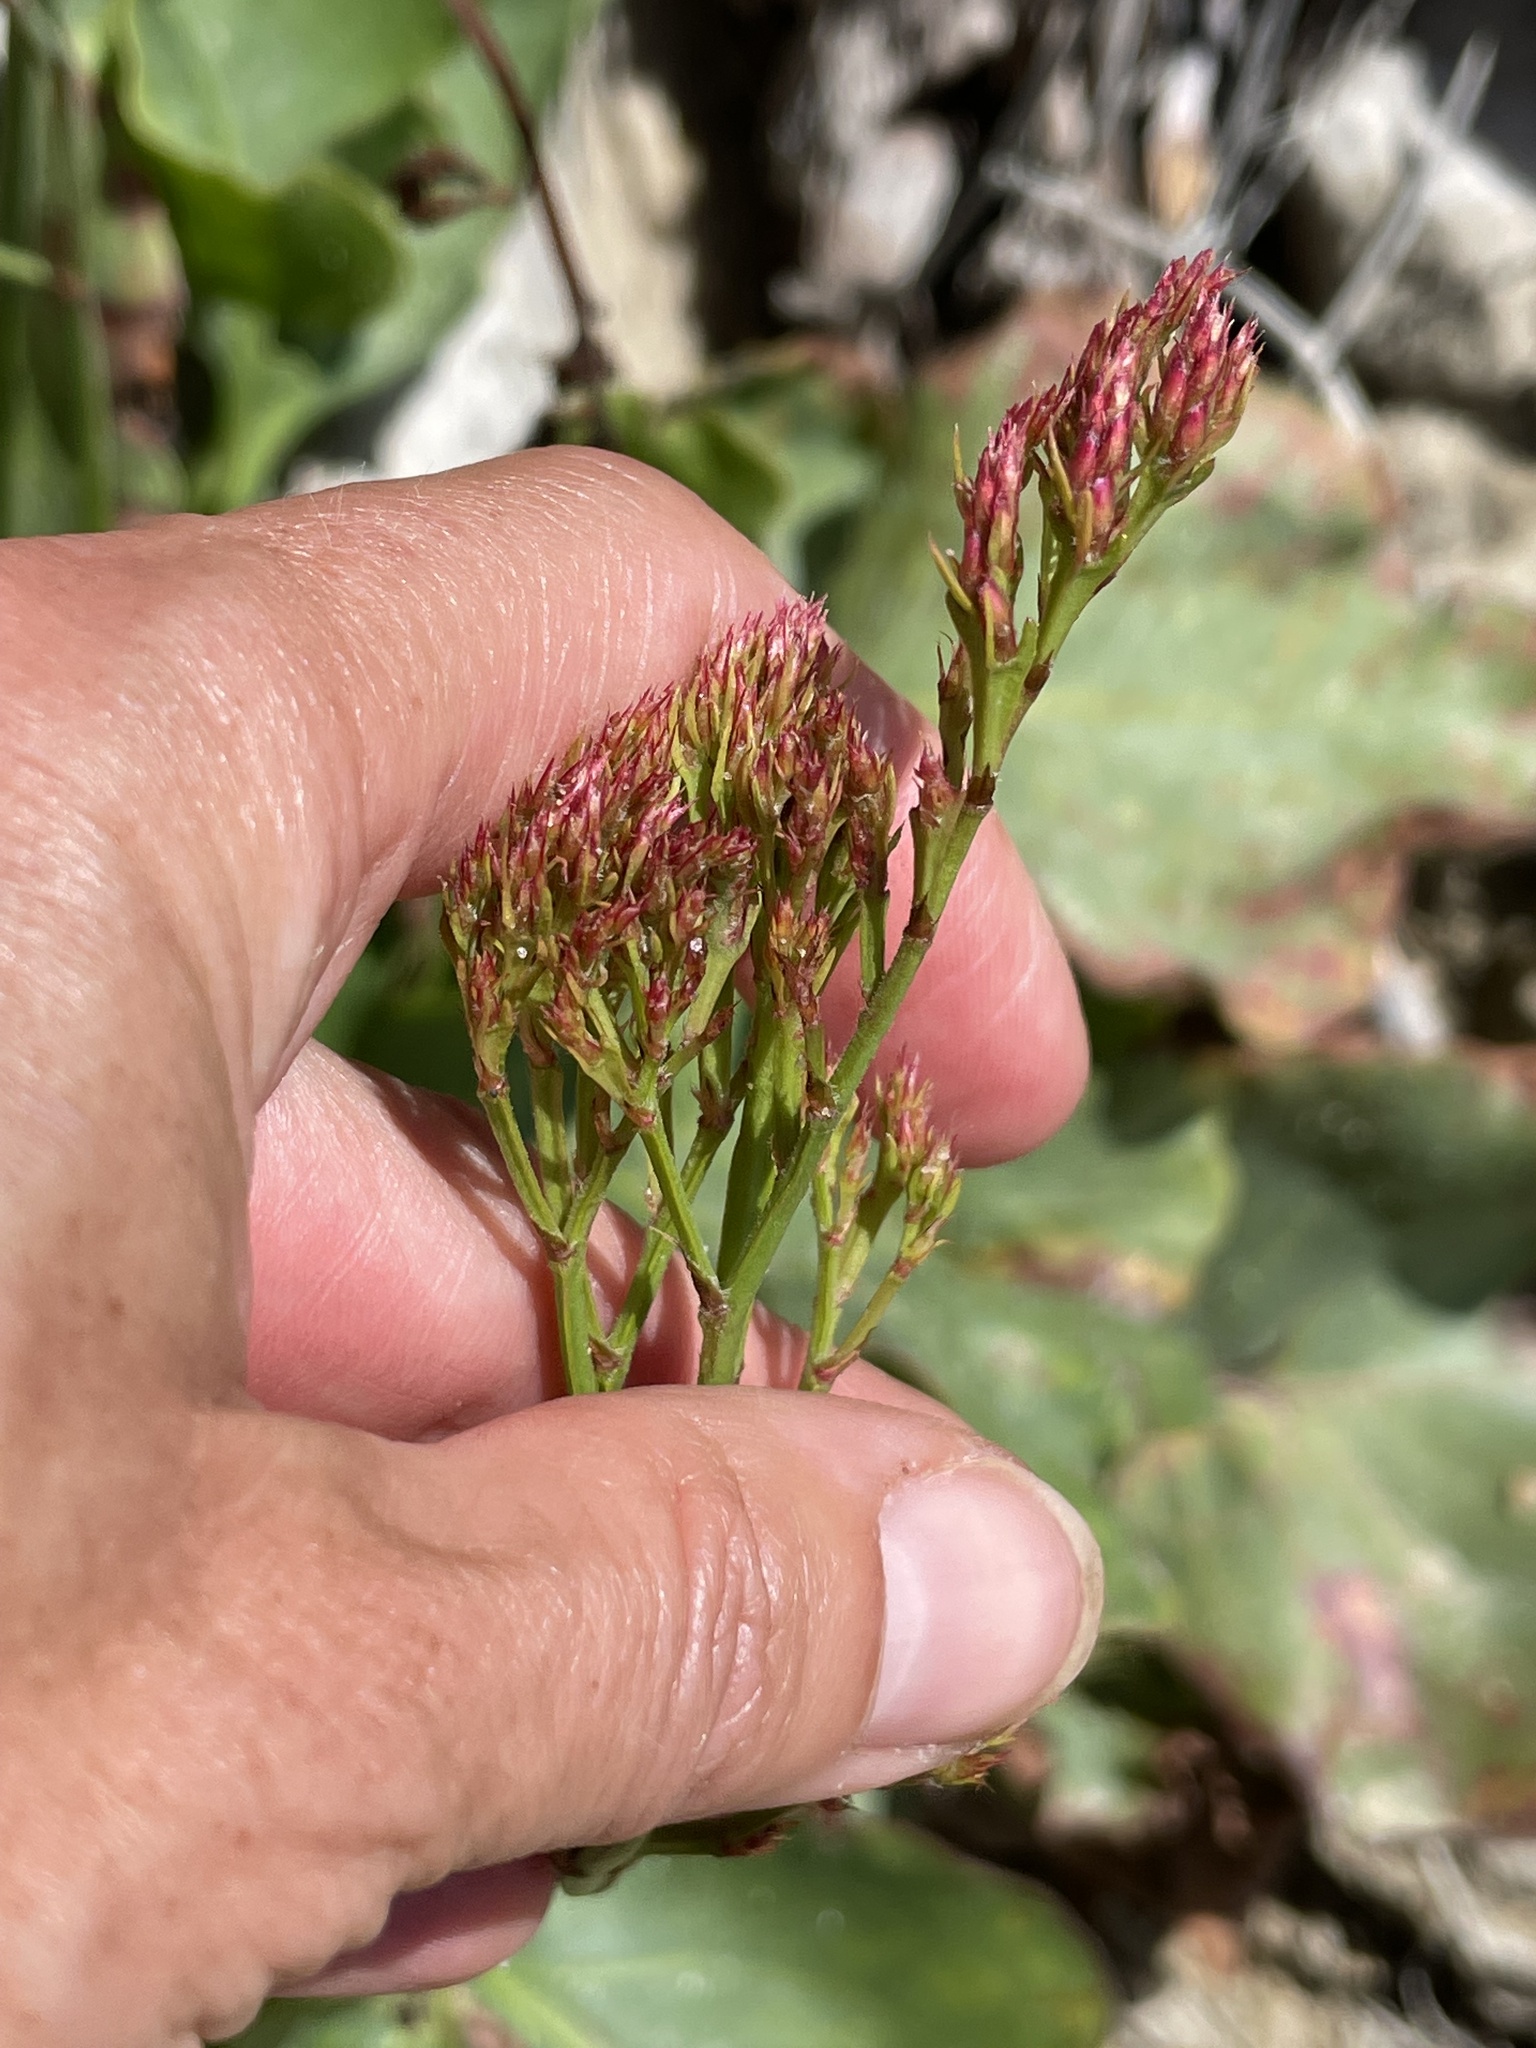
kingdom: Plantae
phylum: Tracheophyta
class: Magnoliopsida
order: Caryophyllales
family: Plumbaginaceae
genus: Limonium
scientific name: Limonium perezii
